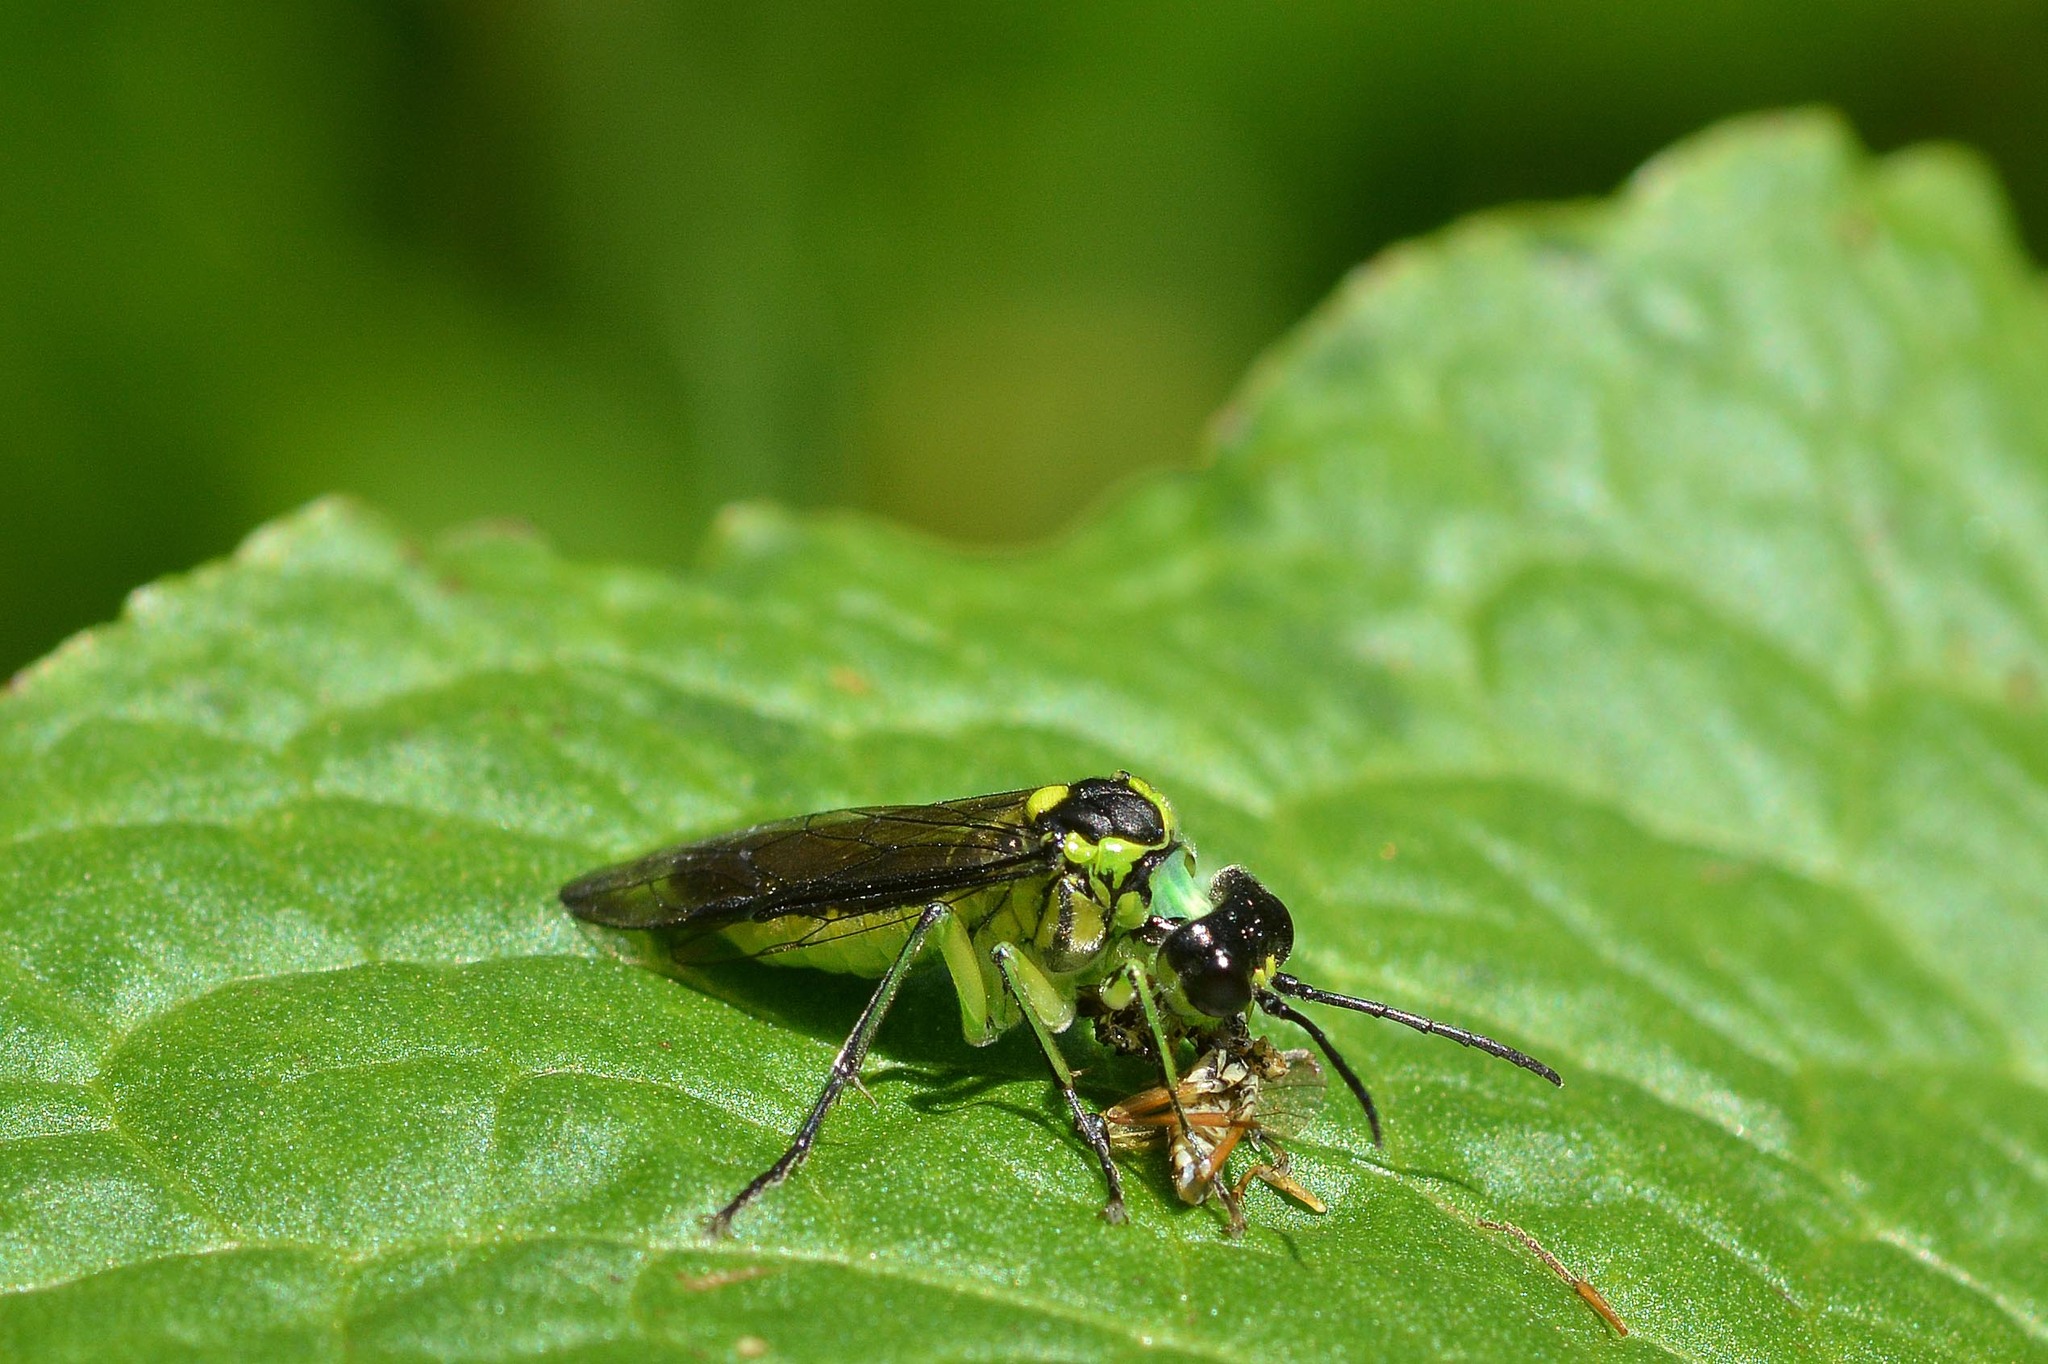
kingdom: Animalia
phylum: Arthropoda
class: Insecta
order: Hymenoptera
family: Tenthredinidae
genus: Tenthredo
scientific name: Tenthredo mesomela
